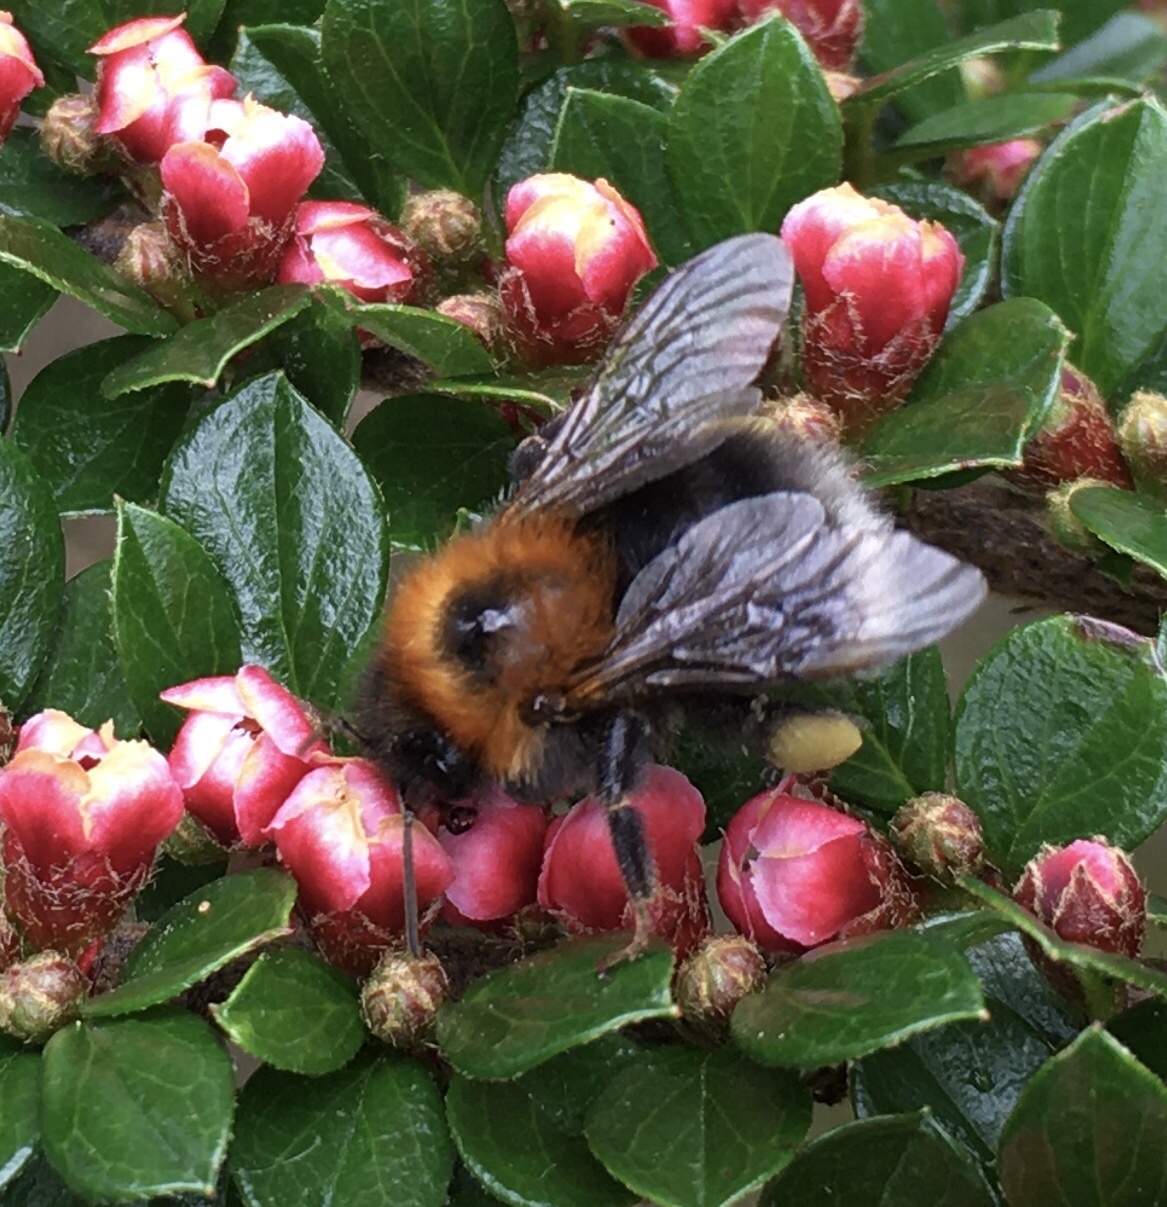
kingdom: Animalia
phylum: Arthropoda
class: Insecta
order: Hymenoptera
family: Apidae
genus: Bombus
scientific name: Bombus hypnorum
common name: New garden bumblebee
